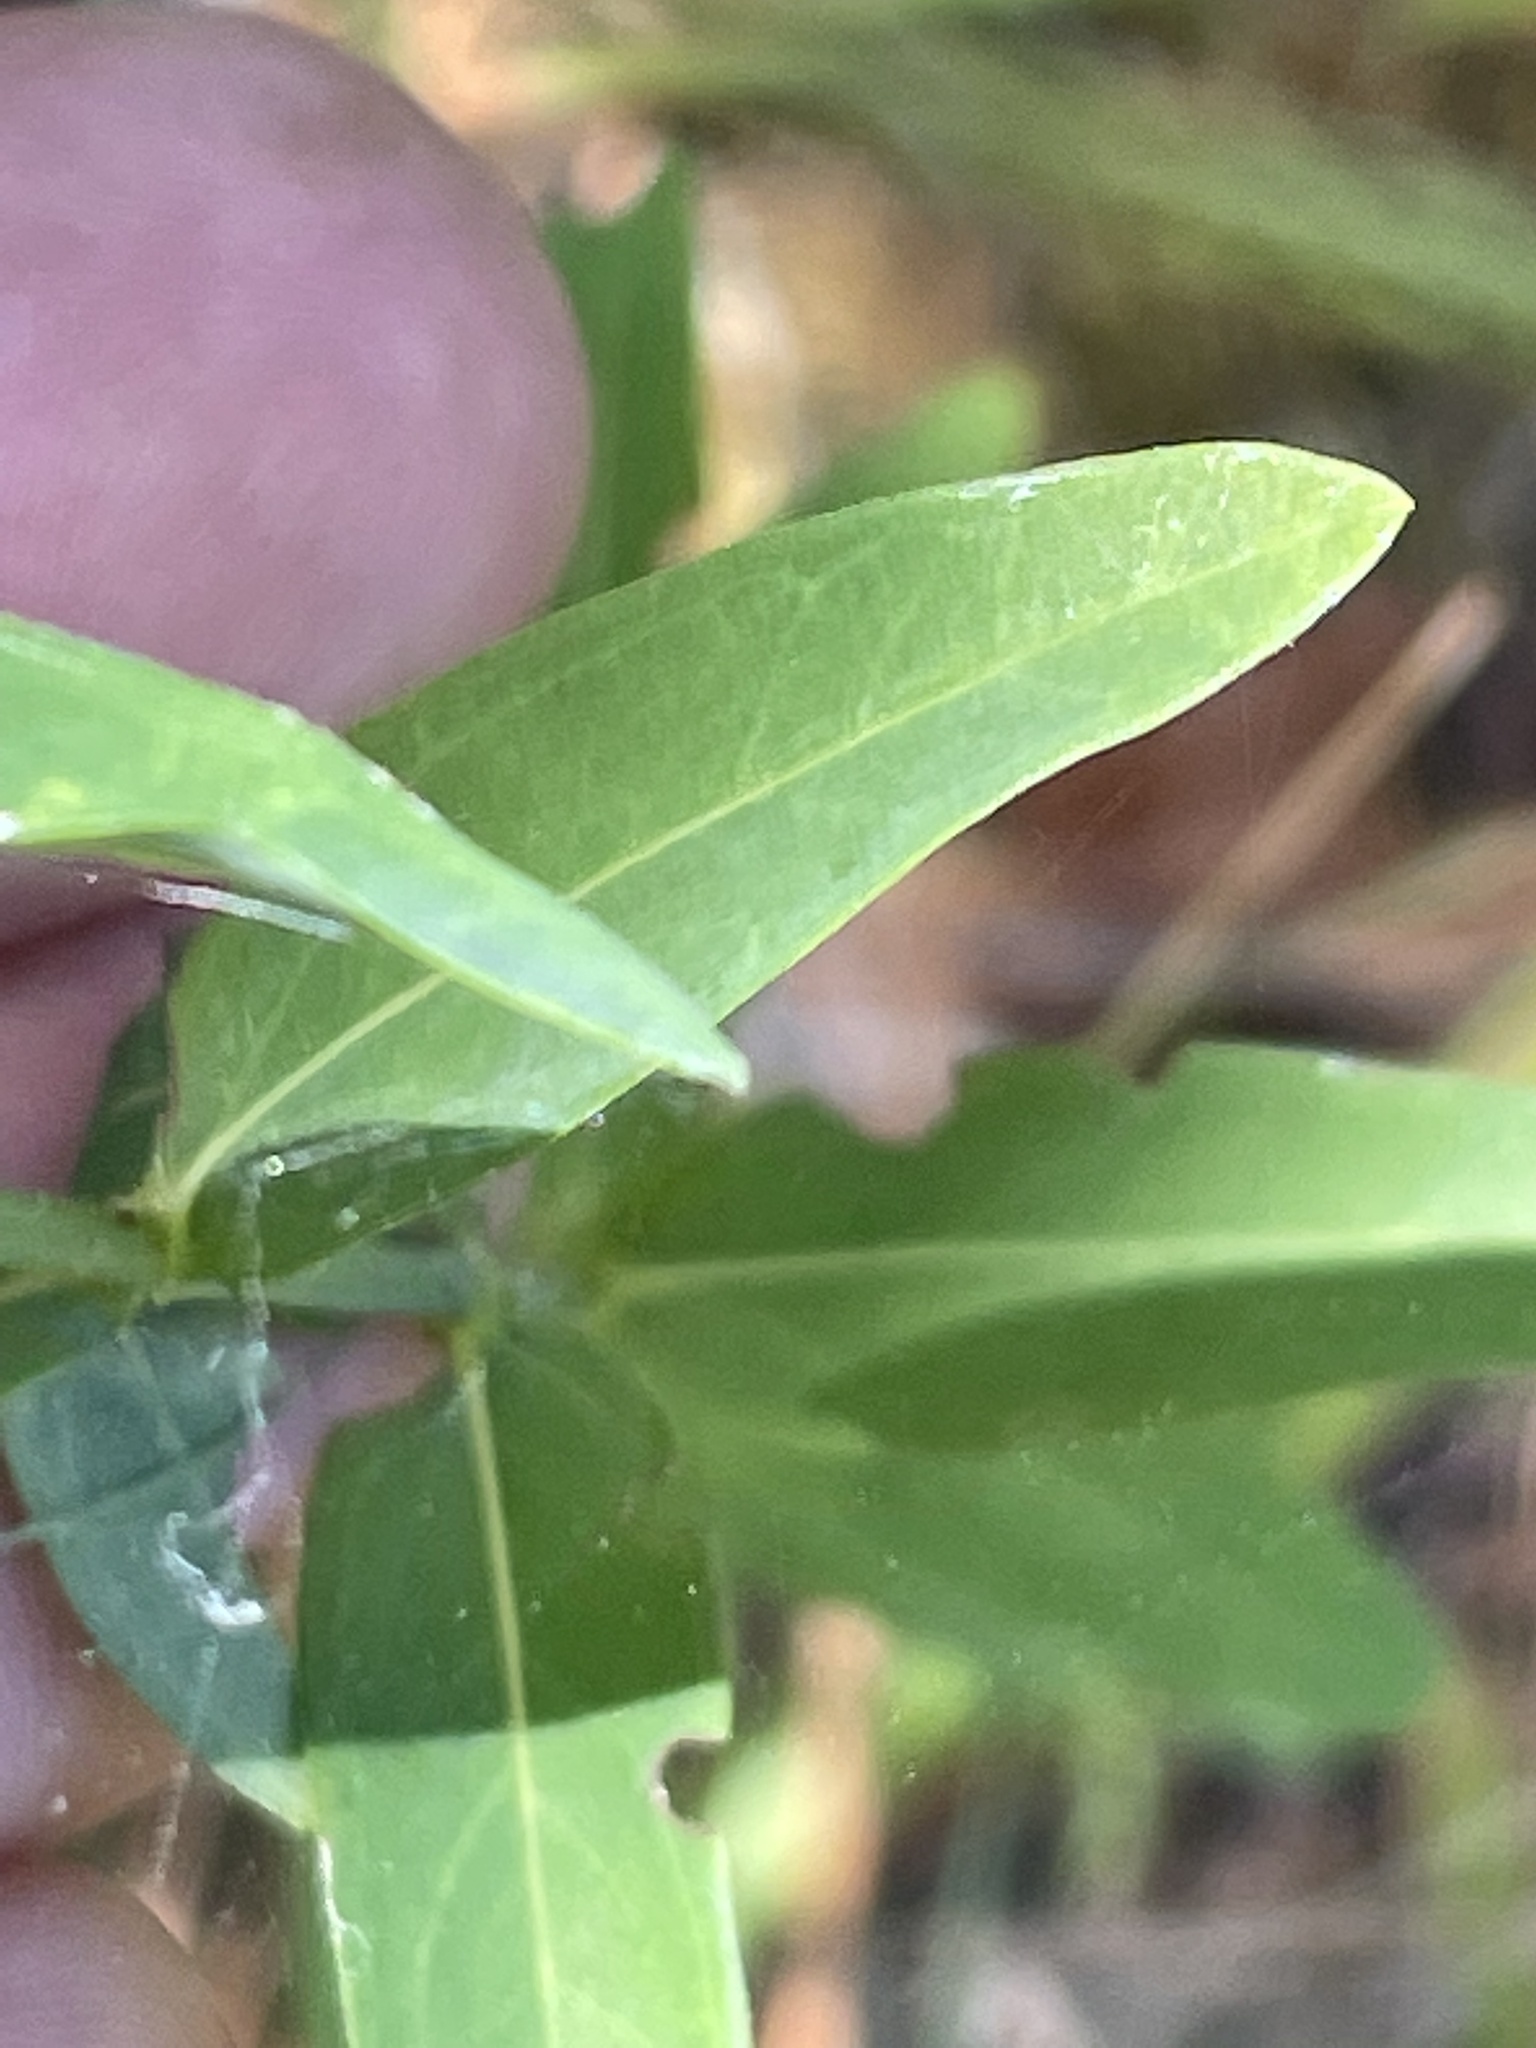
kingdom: Plantae
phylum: Tracheophyta
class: Magnoliopsida
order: Malpighiales
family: Hypericaceae
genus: Hypericum
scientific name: Hypericum virgatum
